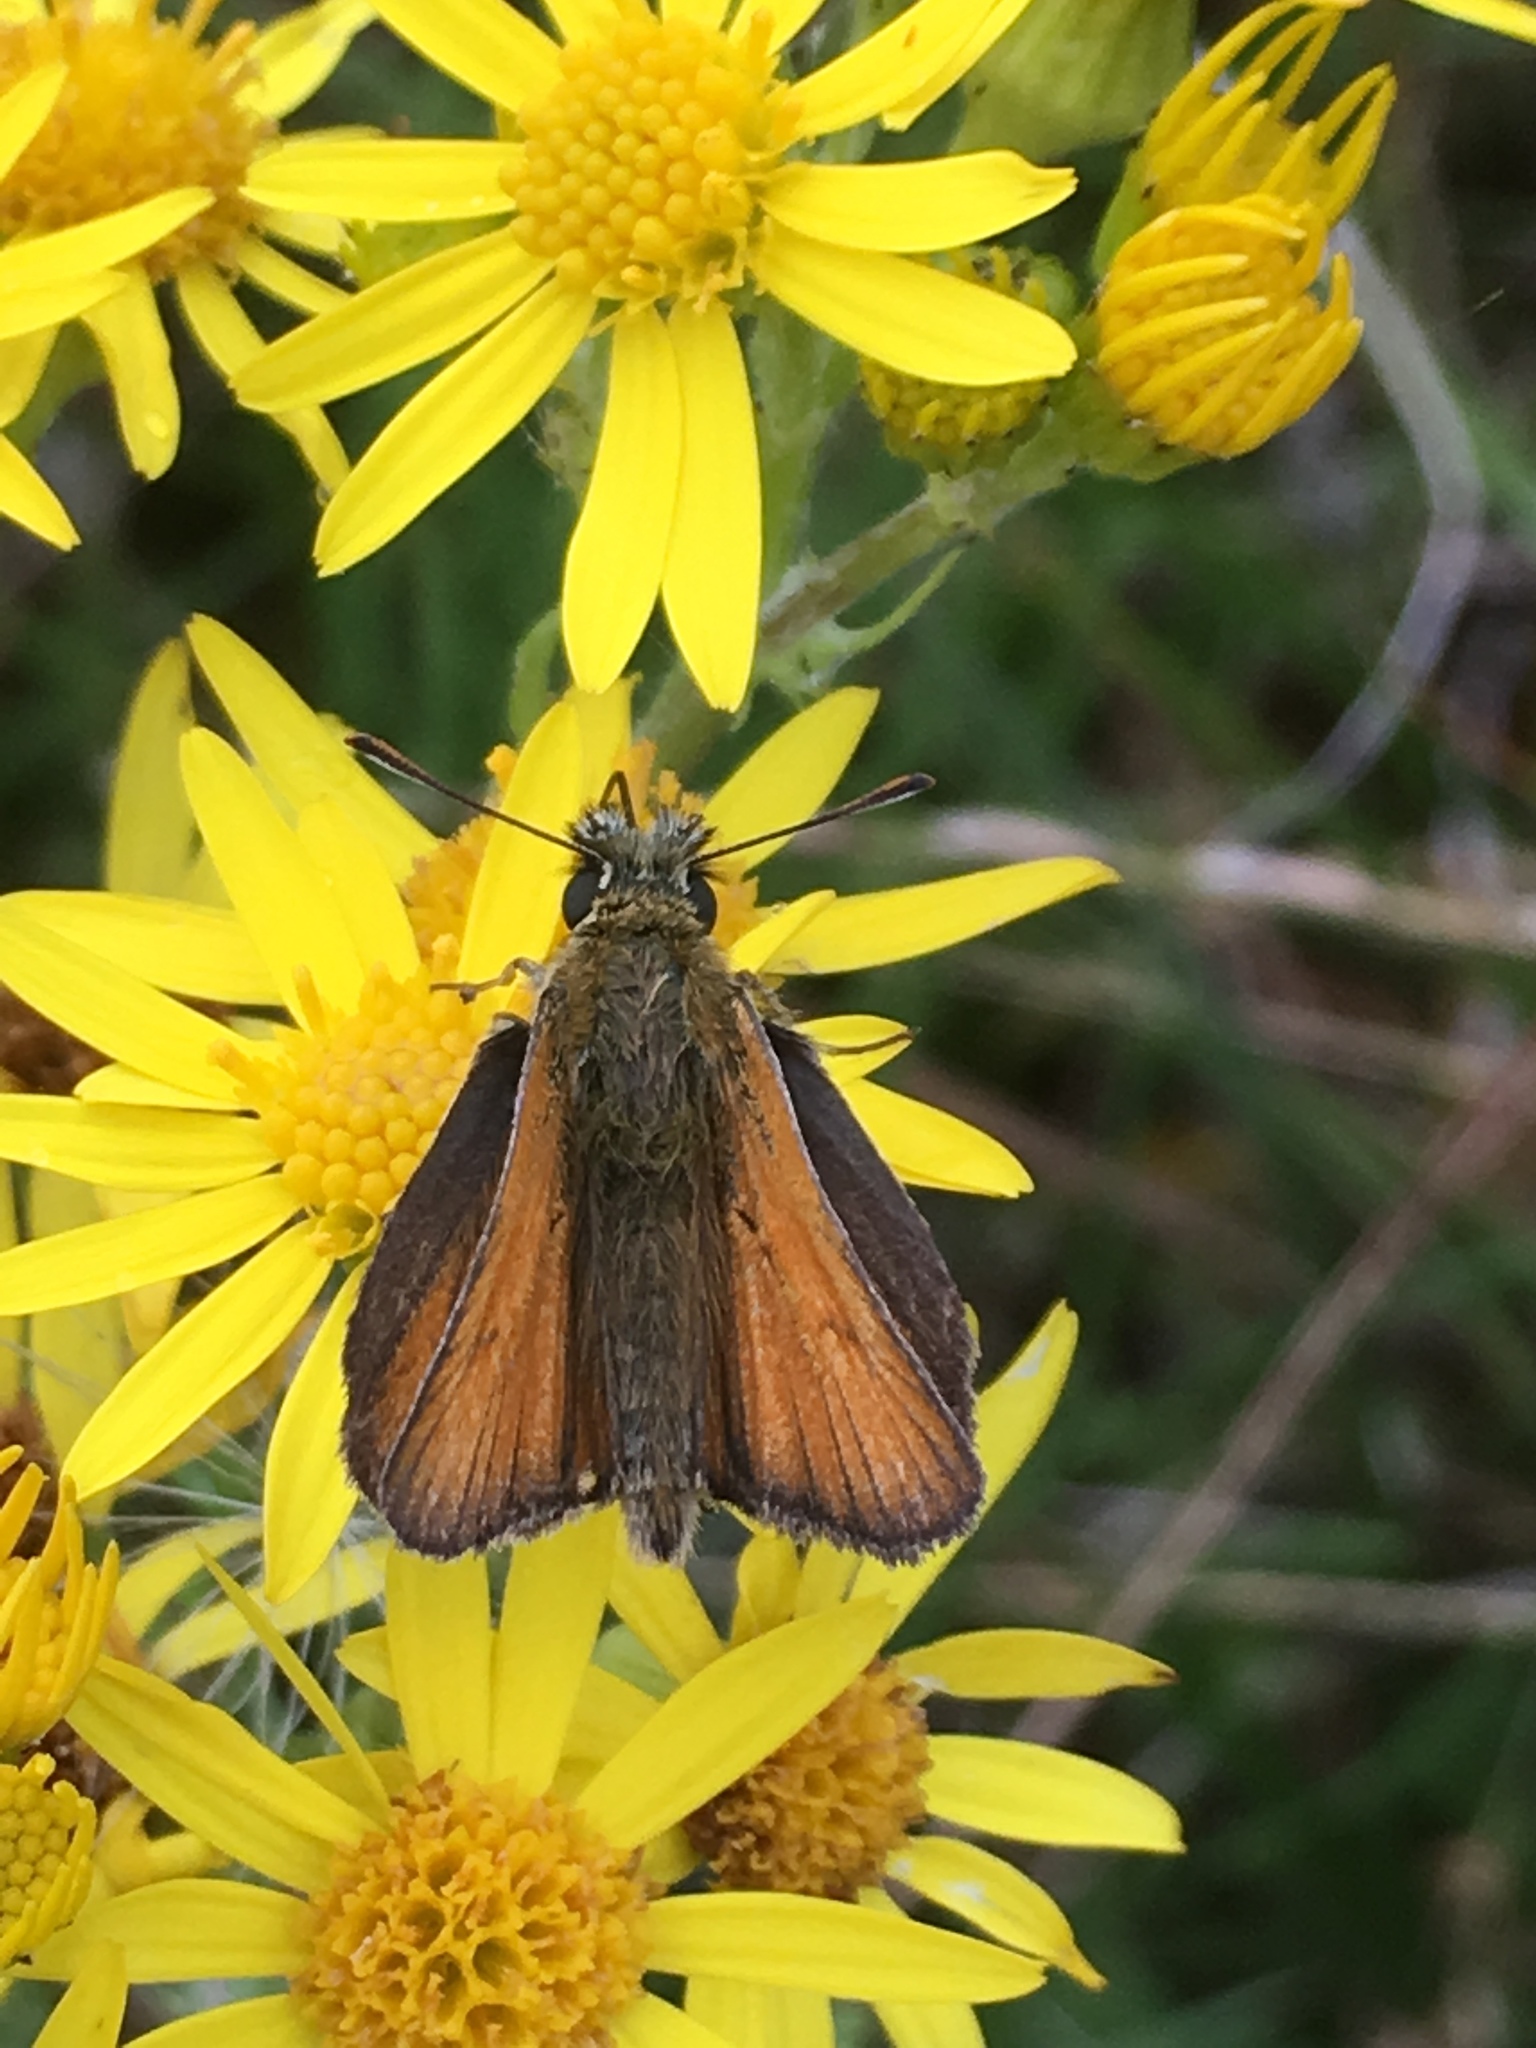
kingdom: Animalia
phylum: Arthropoda
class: Insecta
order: Lepidoptera
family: Hesperiidae
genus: Thymelicus
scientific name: Thymelicus sylvestris
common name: Small skipper
